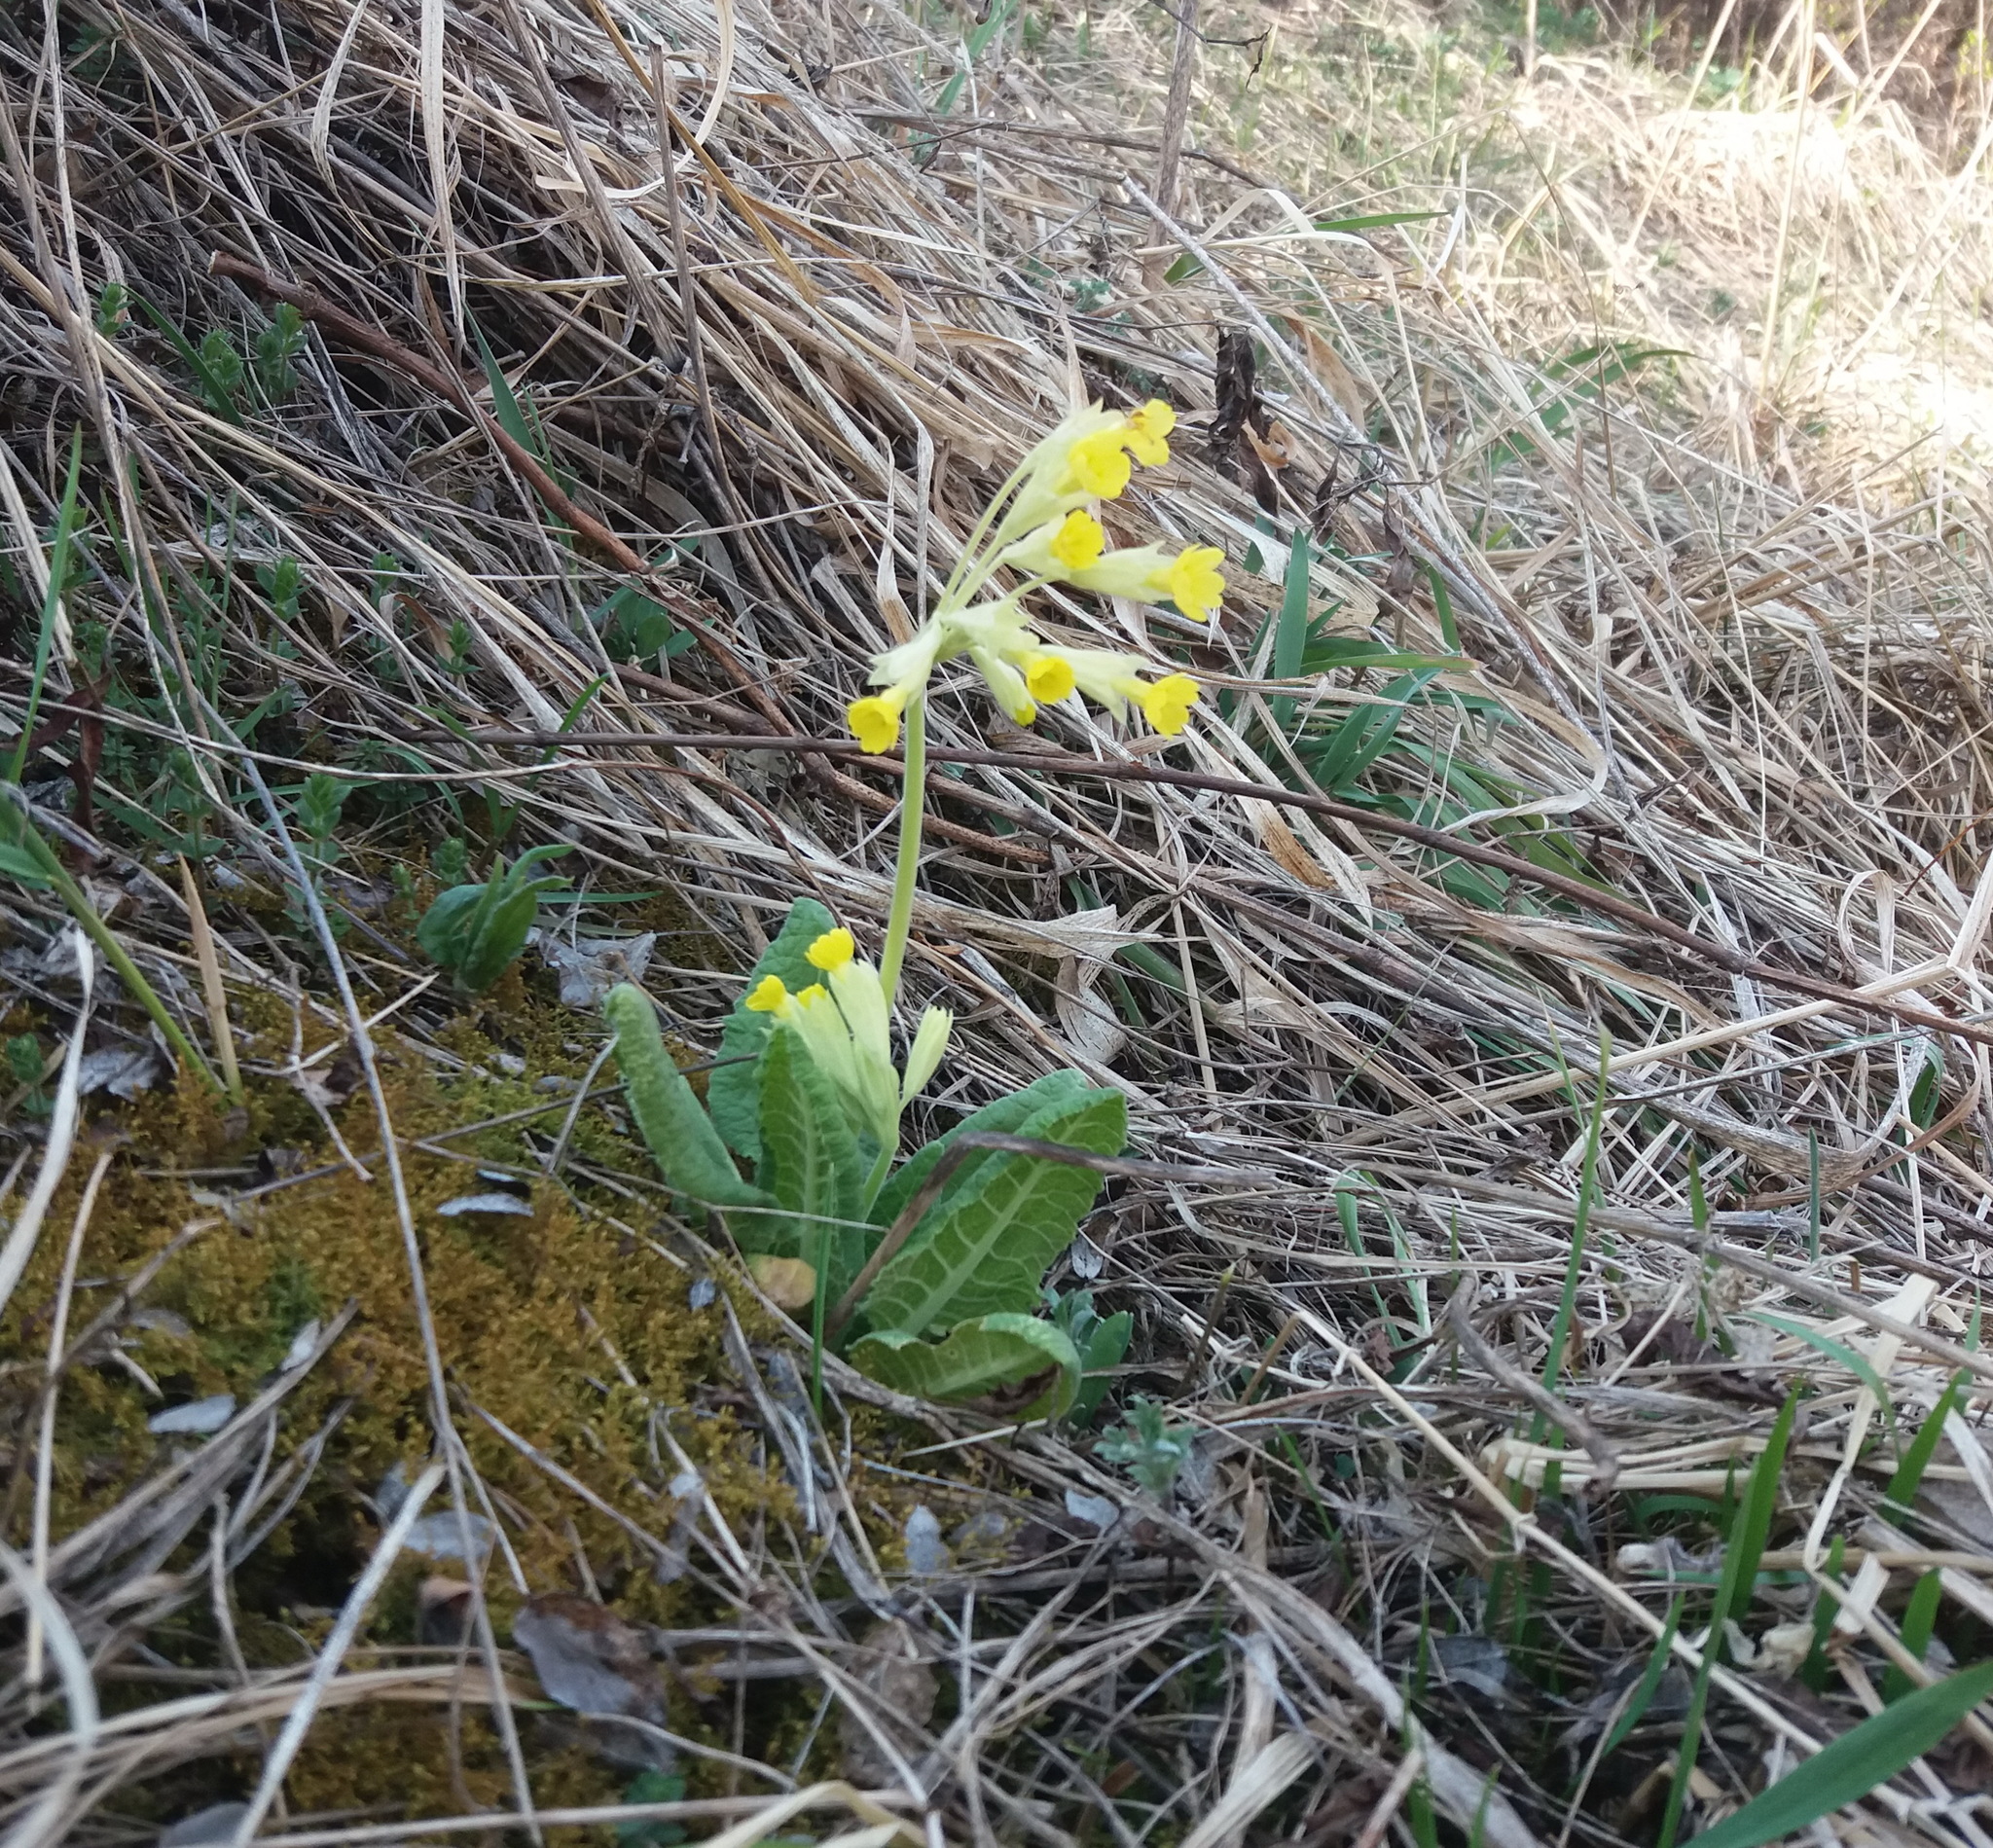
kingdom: Plantae
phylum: Tracheophyta
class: Magnoliopsida
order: Ericales
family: Primulaceae
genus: Primula
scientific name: Primula veris
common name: Cowslip
